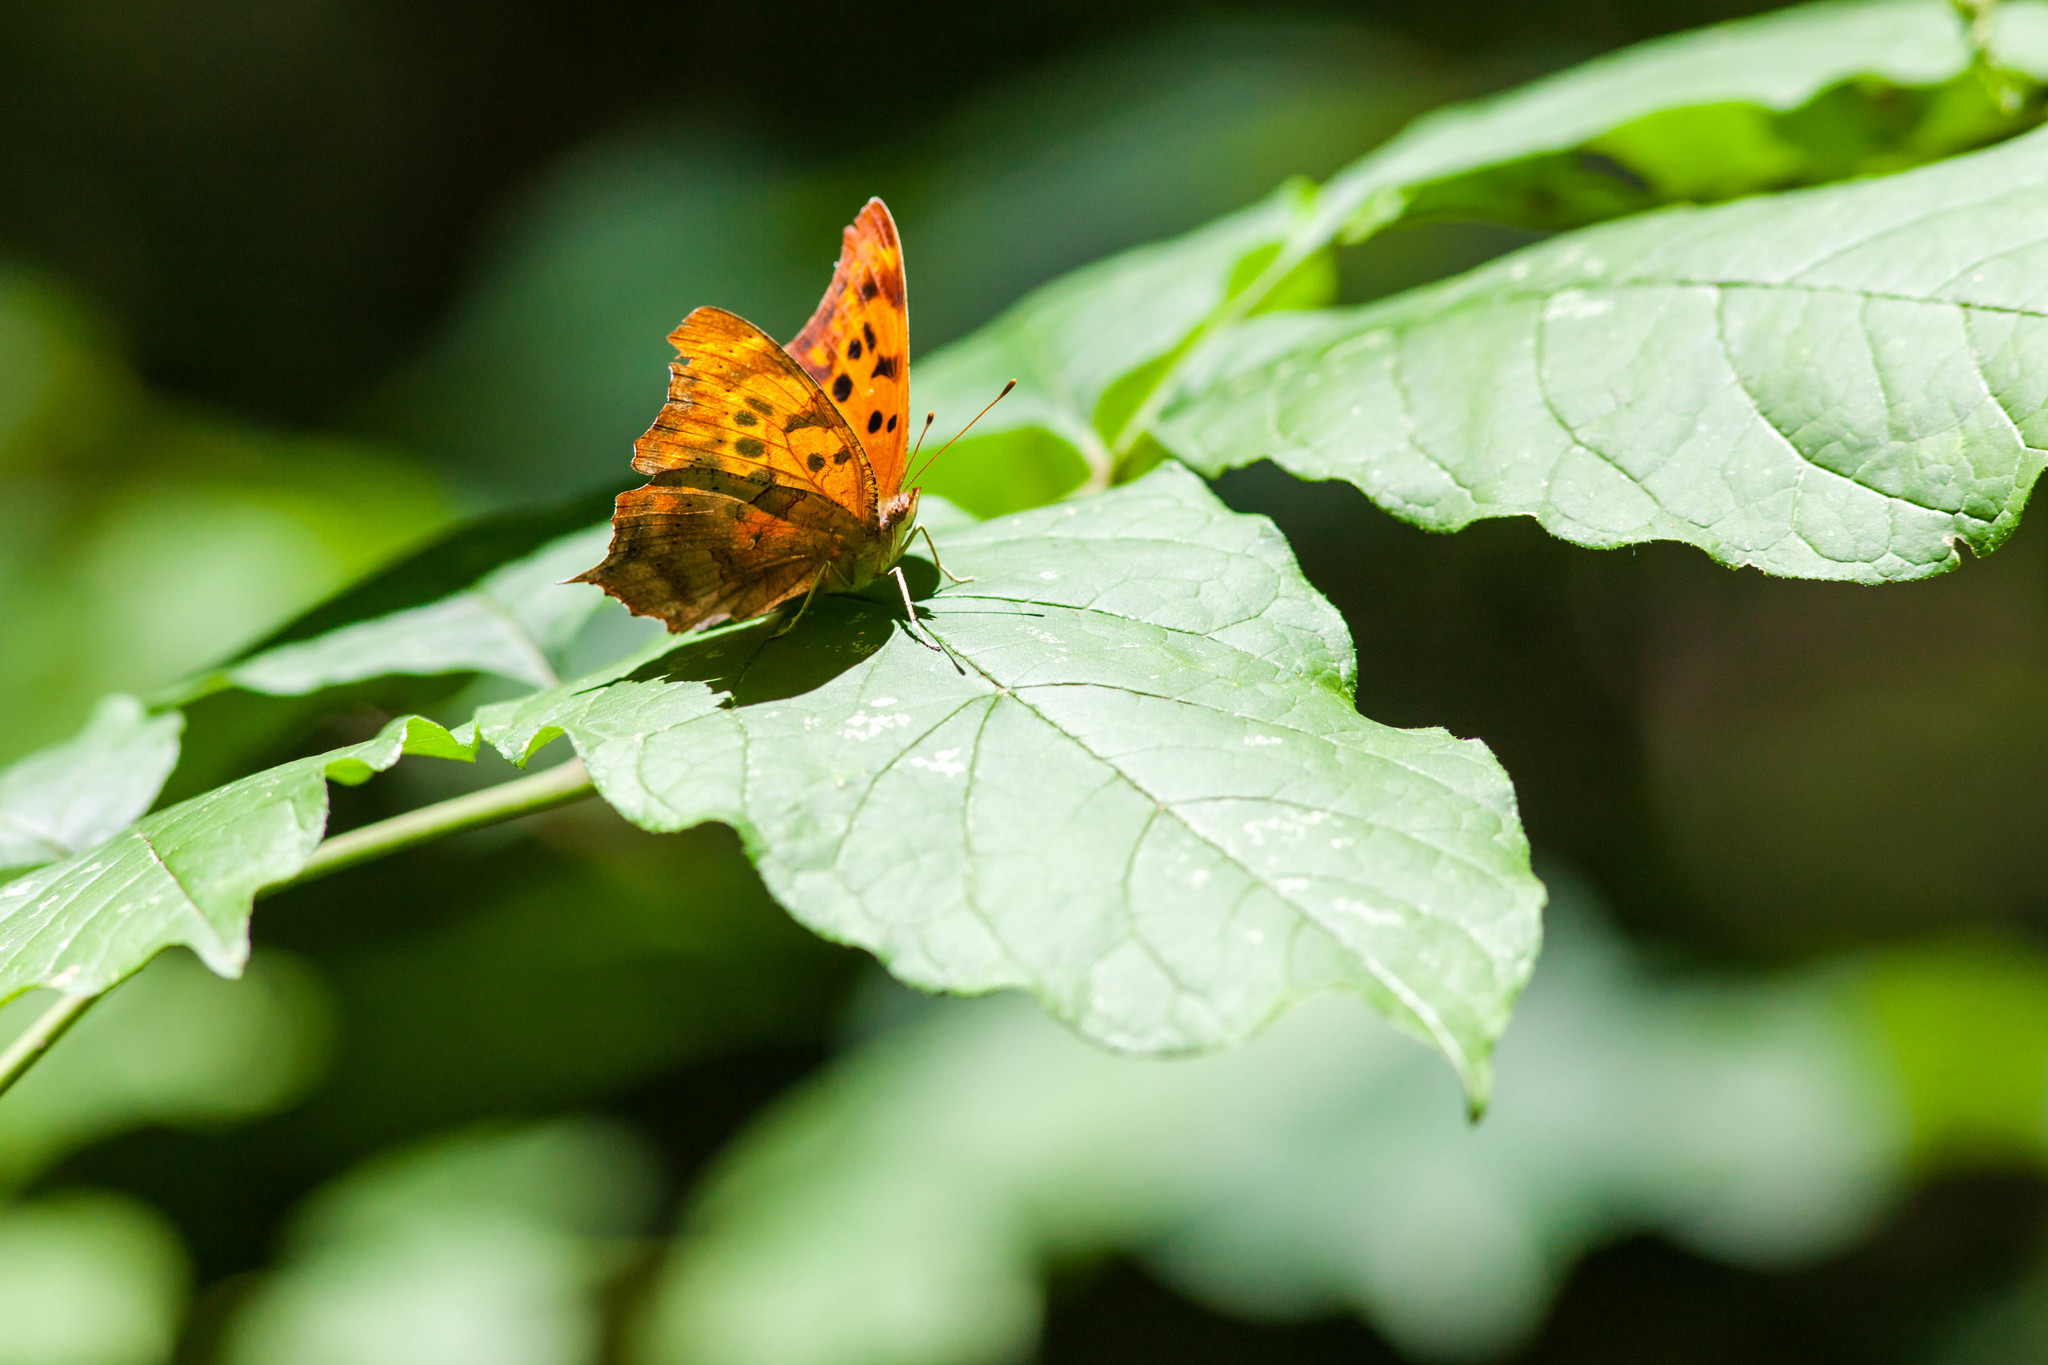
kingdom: Animalia
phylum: Arthropoda
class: Insecta
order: Lepidoptera
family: Nymphalidae
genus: Polygonia
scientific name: Polygonia interrogationis
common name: Question mark
